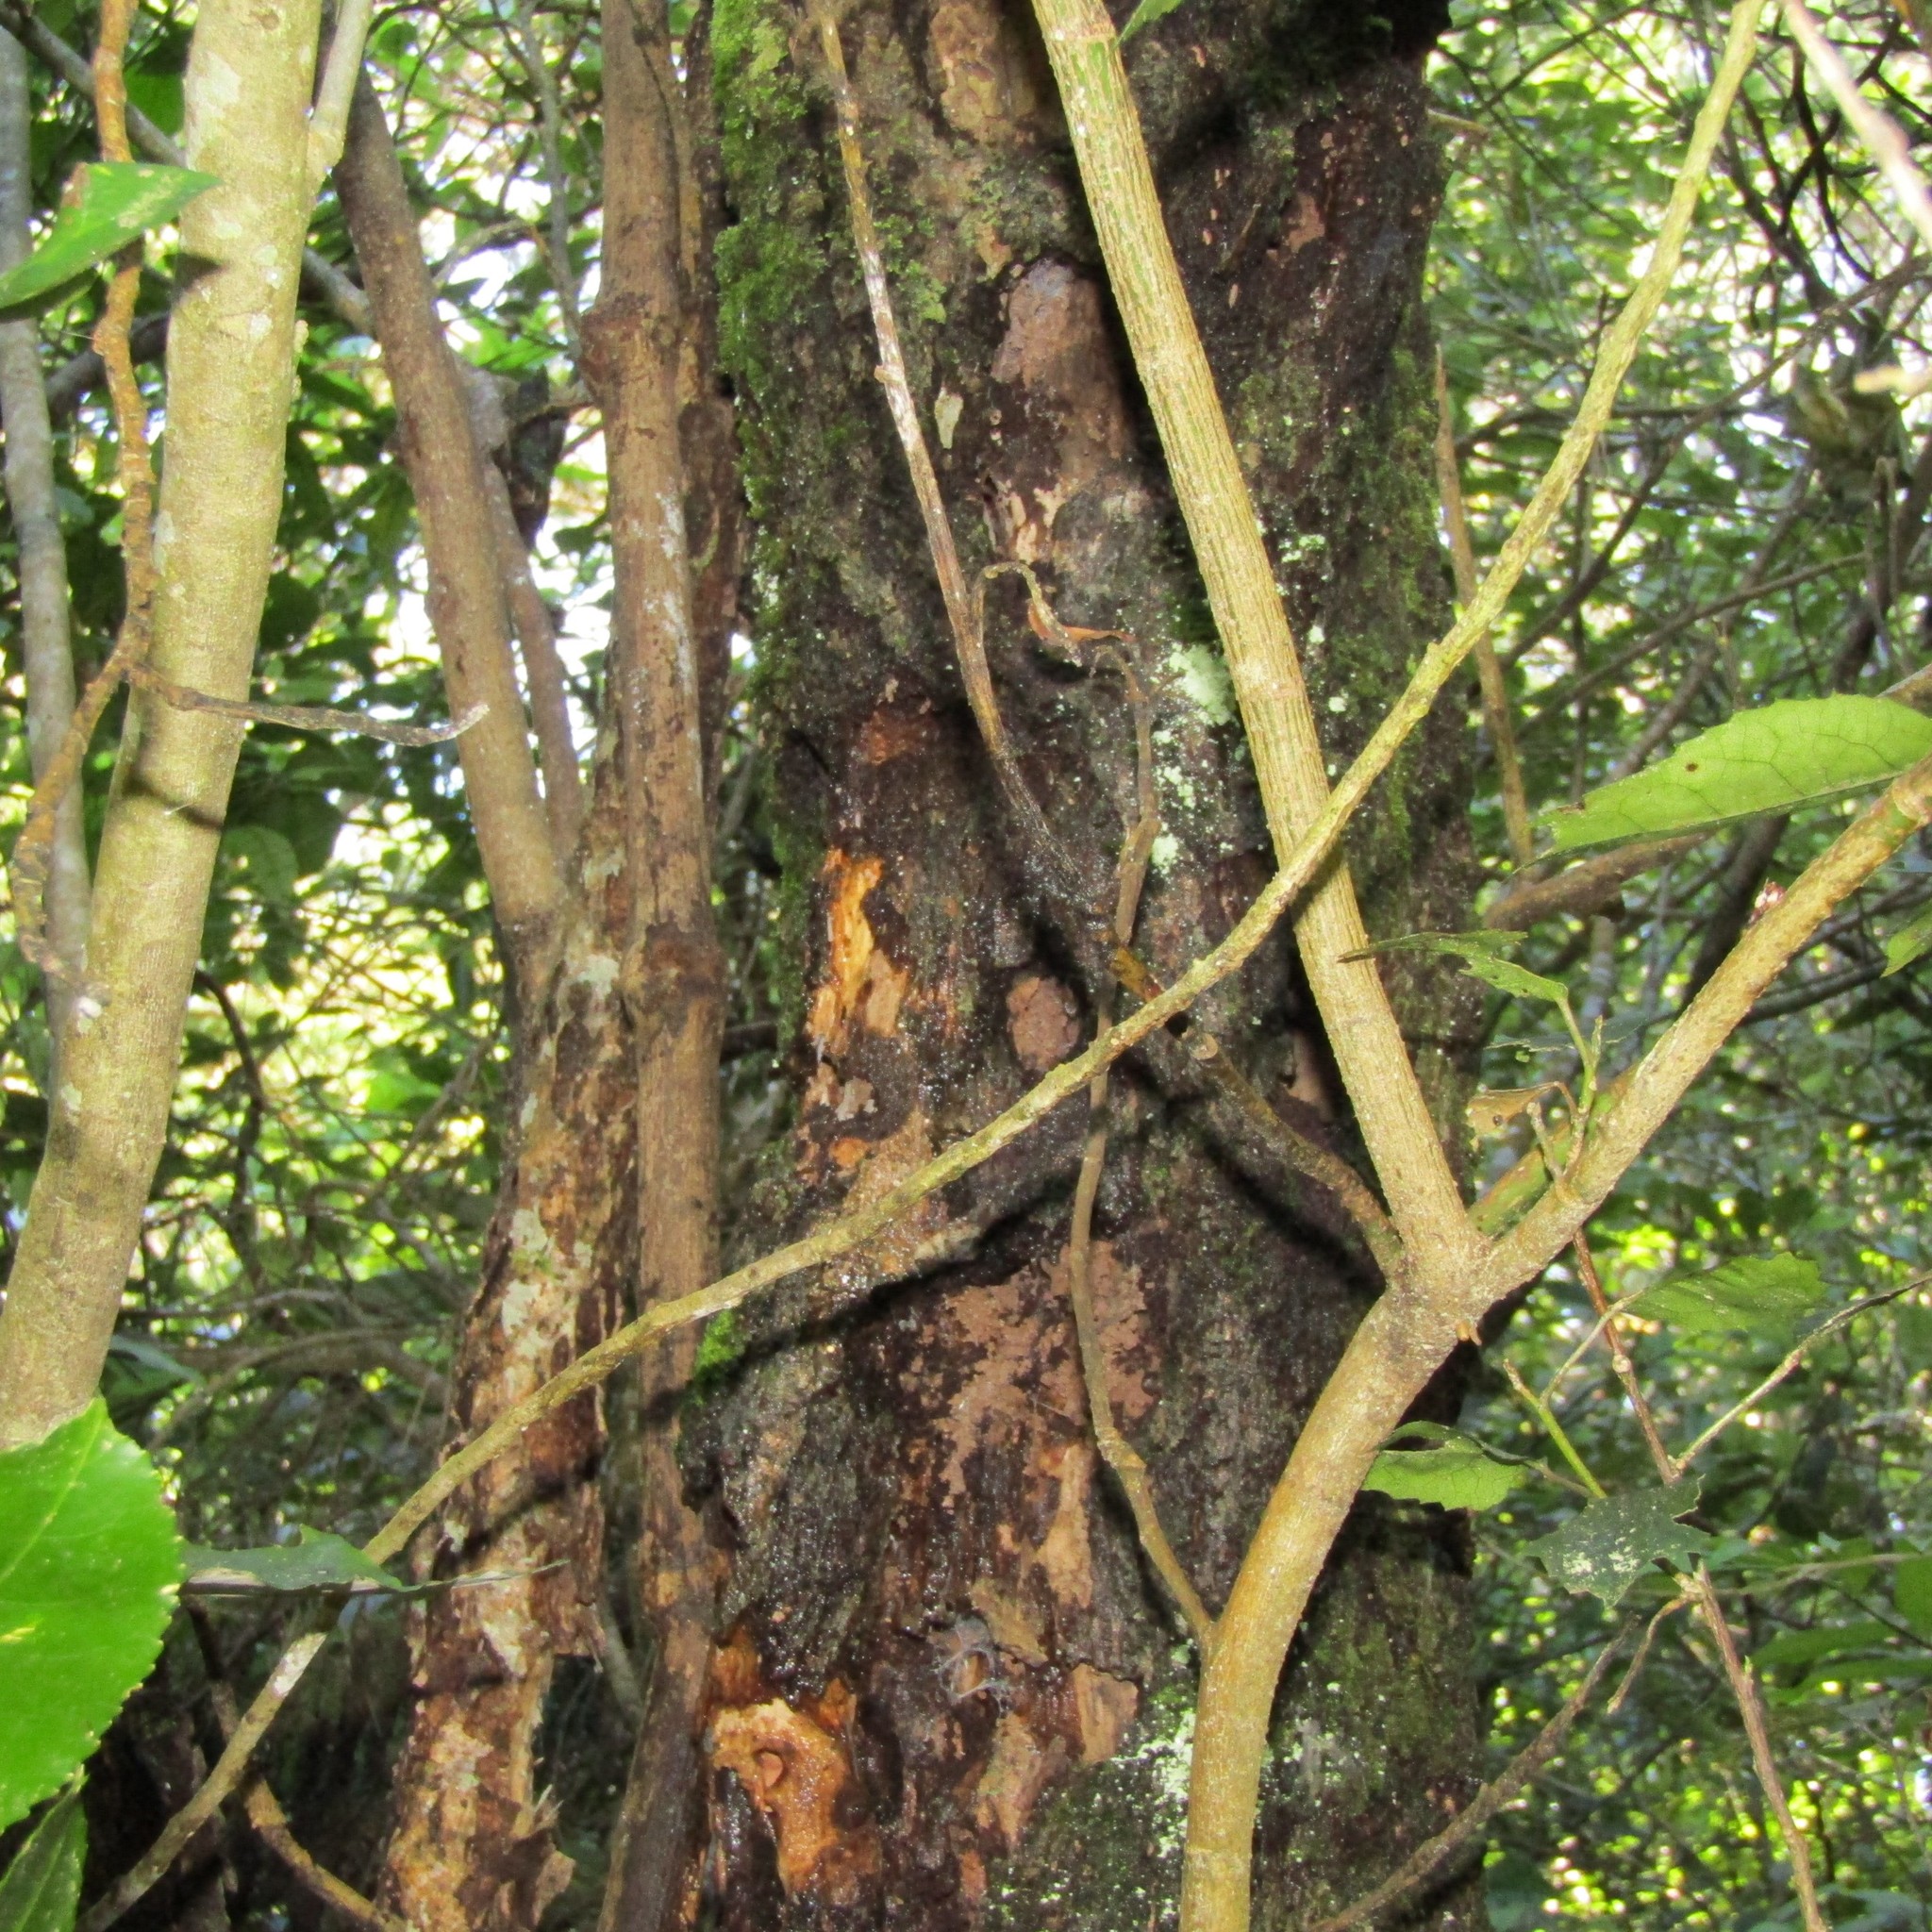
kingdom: Plantae
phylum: Tracheophyta
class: Magnoliopsida
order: Apiales
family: Griseliniaceae
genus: Griselinia
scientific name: Griselinia littoralis
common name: New zealand broadleaf
